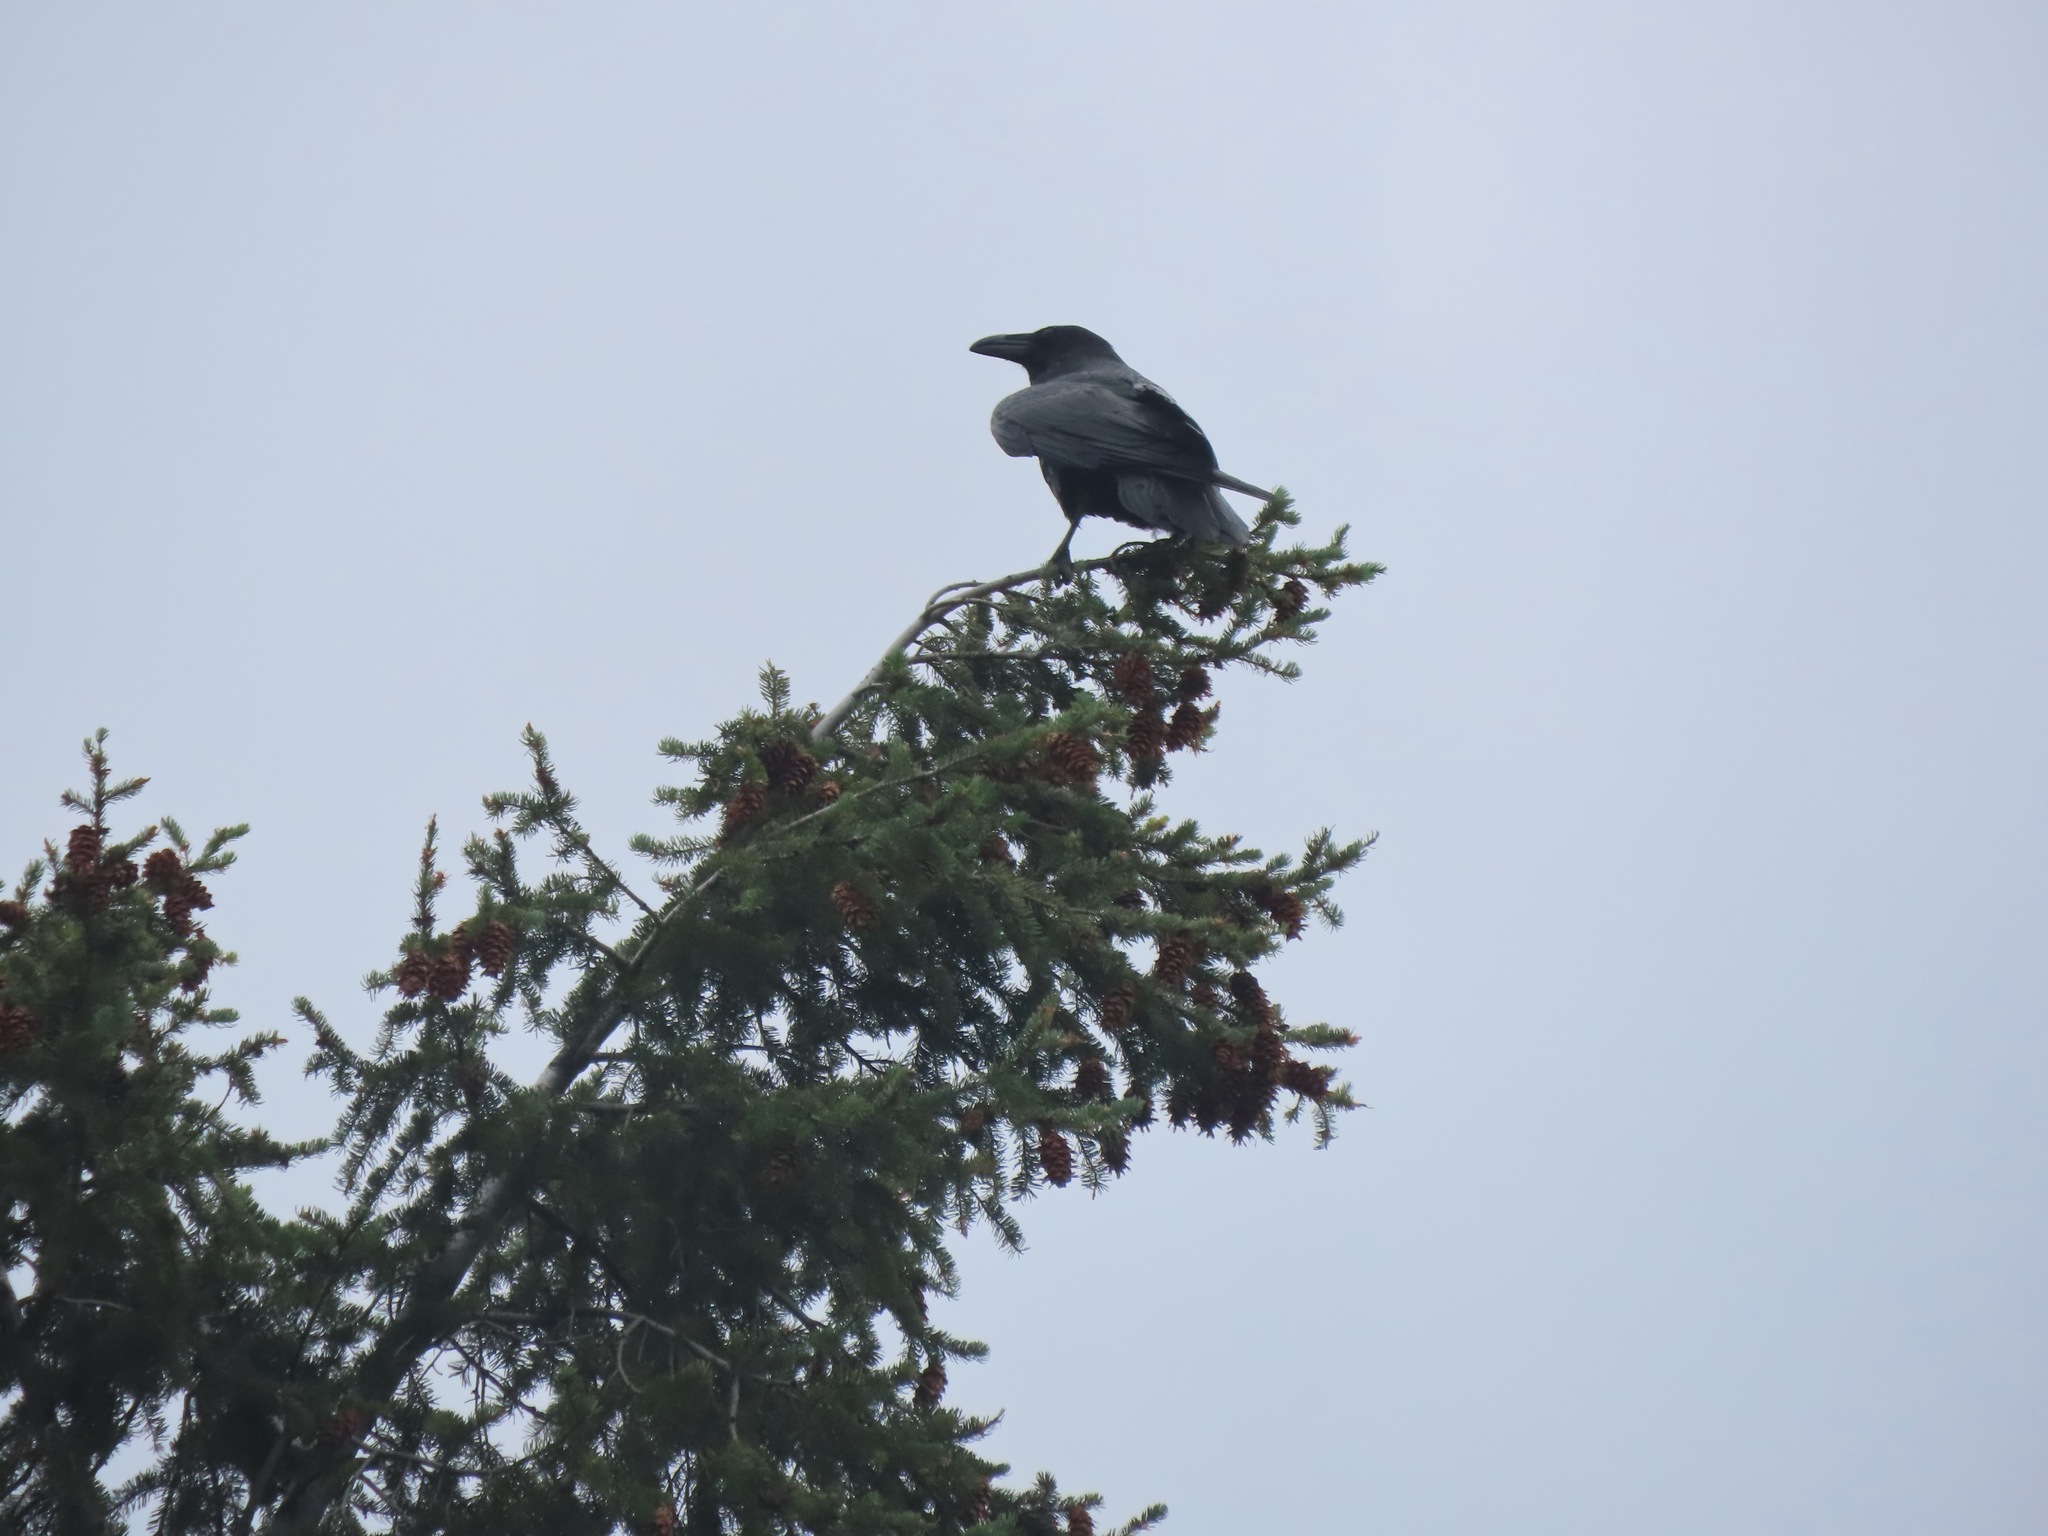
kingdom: Animalia
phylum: Chordata
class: Aves
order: Passeriformes
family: Corvidae
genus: Corvus
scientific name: Corvus corax
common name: Common raven
